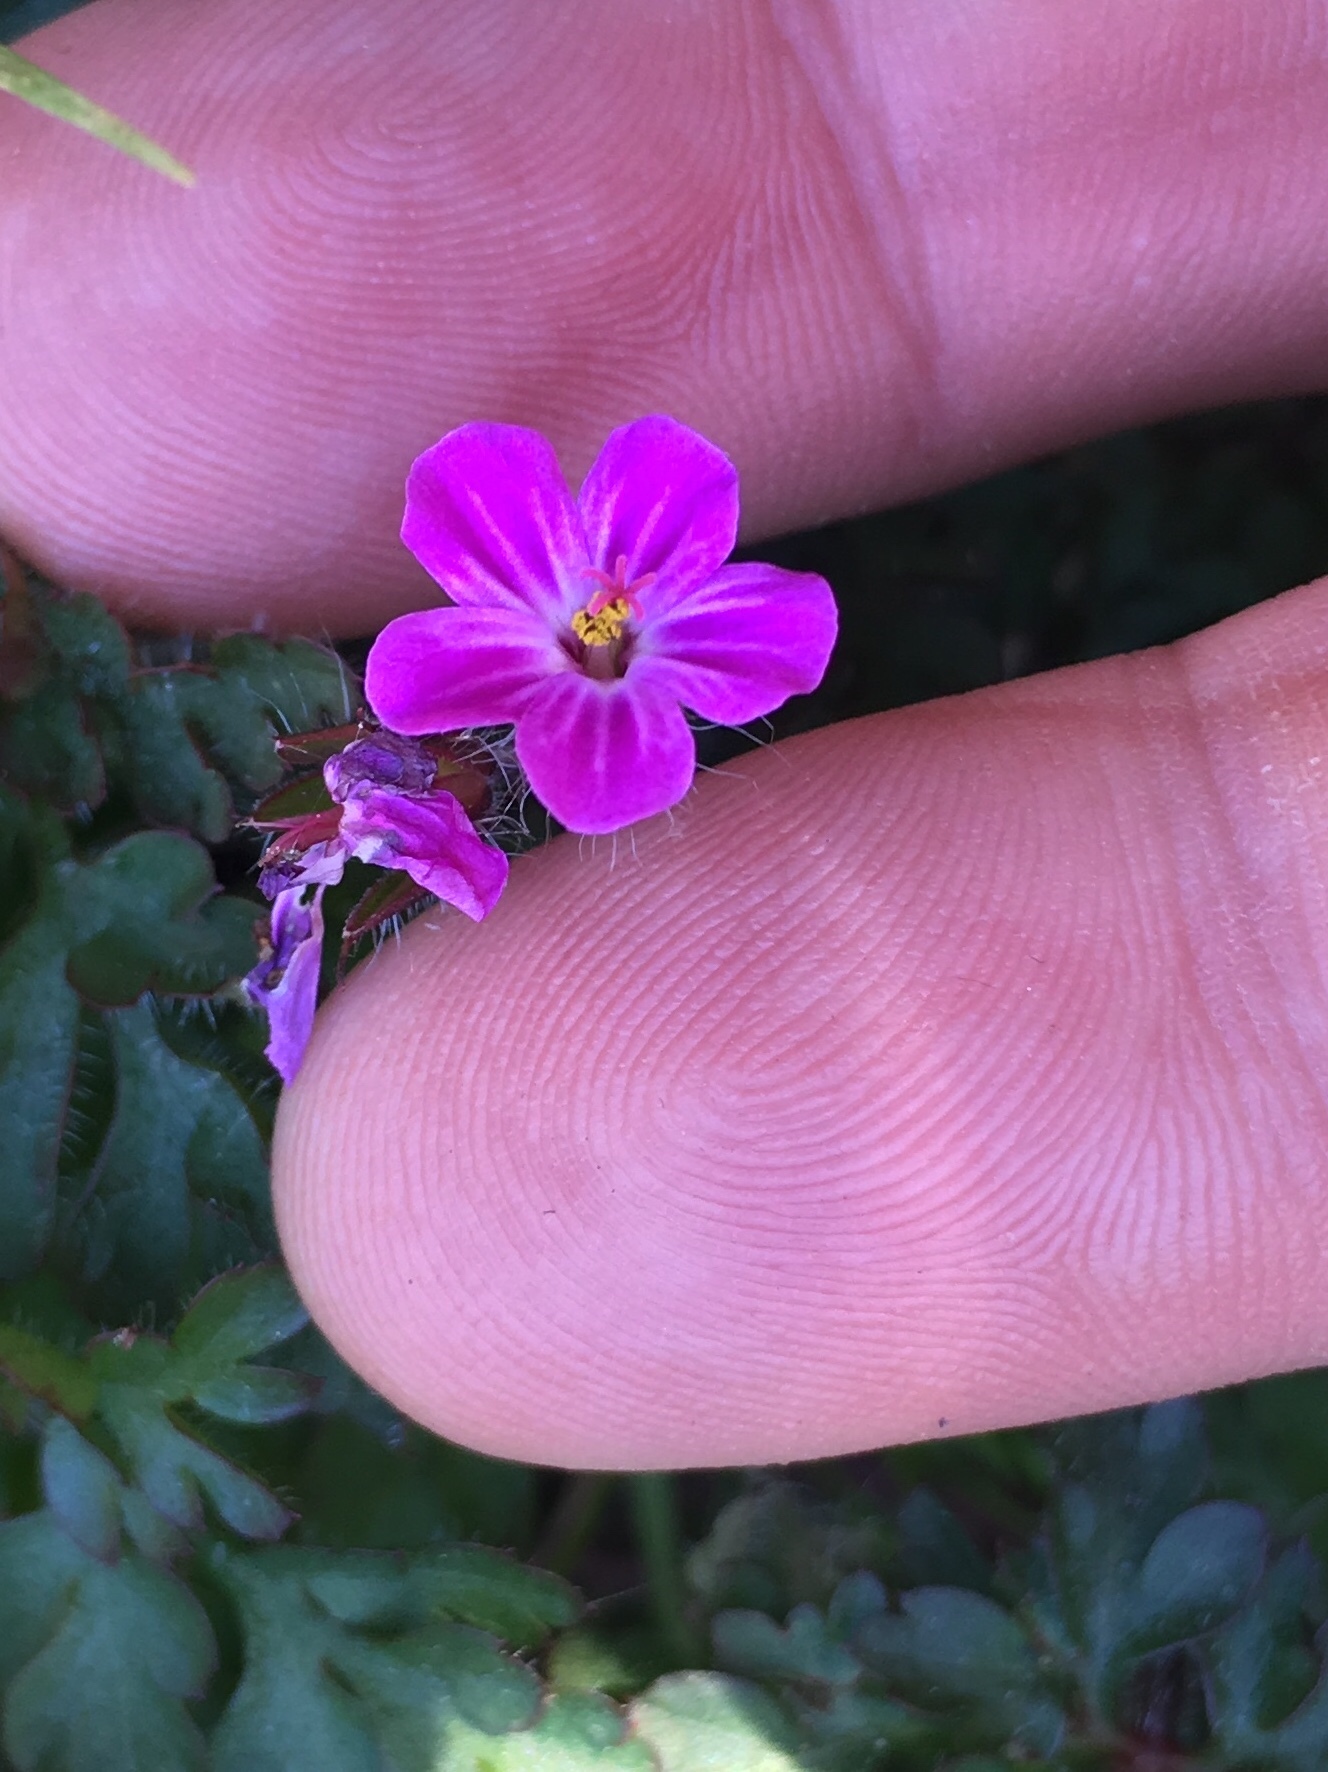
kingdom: Plantae
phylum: Tracheophyta
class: Magnoliopsida
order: Geraniales
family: Geraniaceae
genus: Geranium
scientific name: Geranium robertianum
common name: Herb-robert
